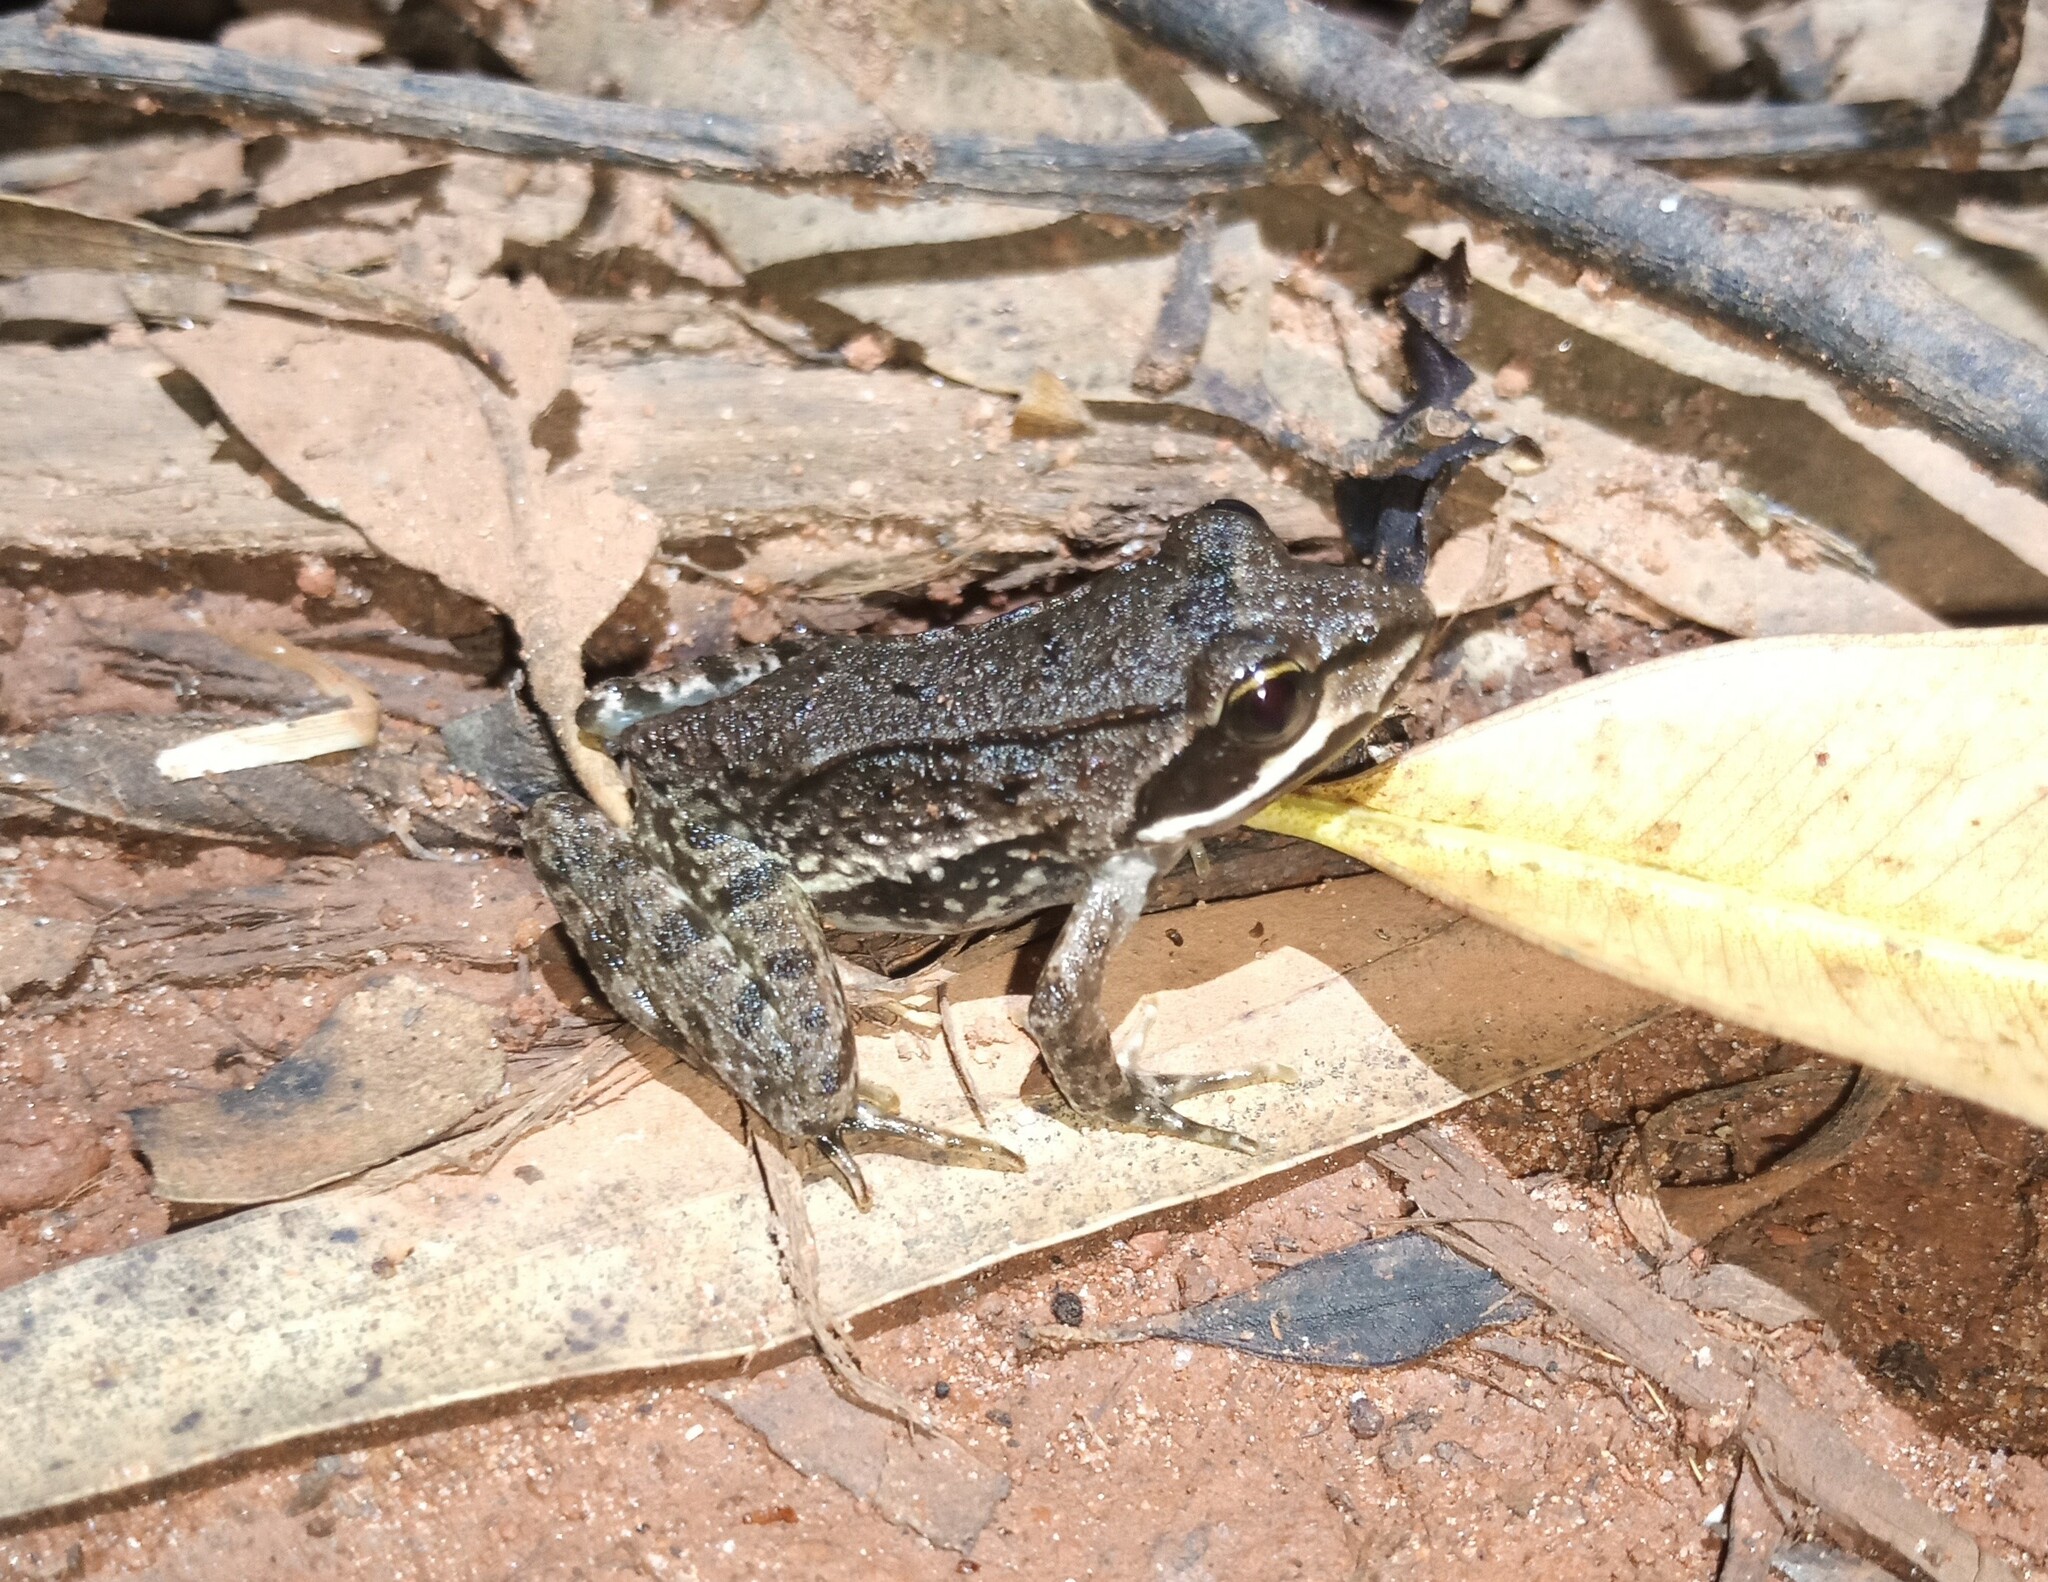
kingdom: Animalia
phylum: Chordata
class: Amphibia
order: Anura
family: Pyxicephalidae
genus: Amietia
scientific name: Amietia tenuoplicata
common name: River frog
